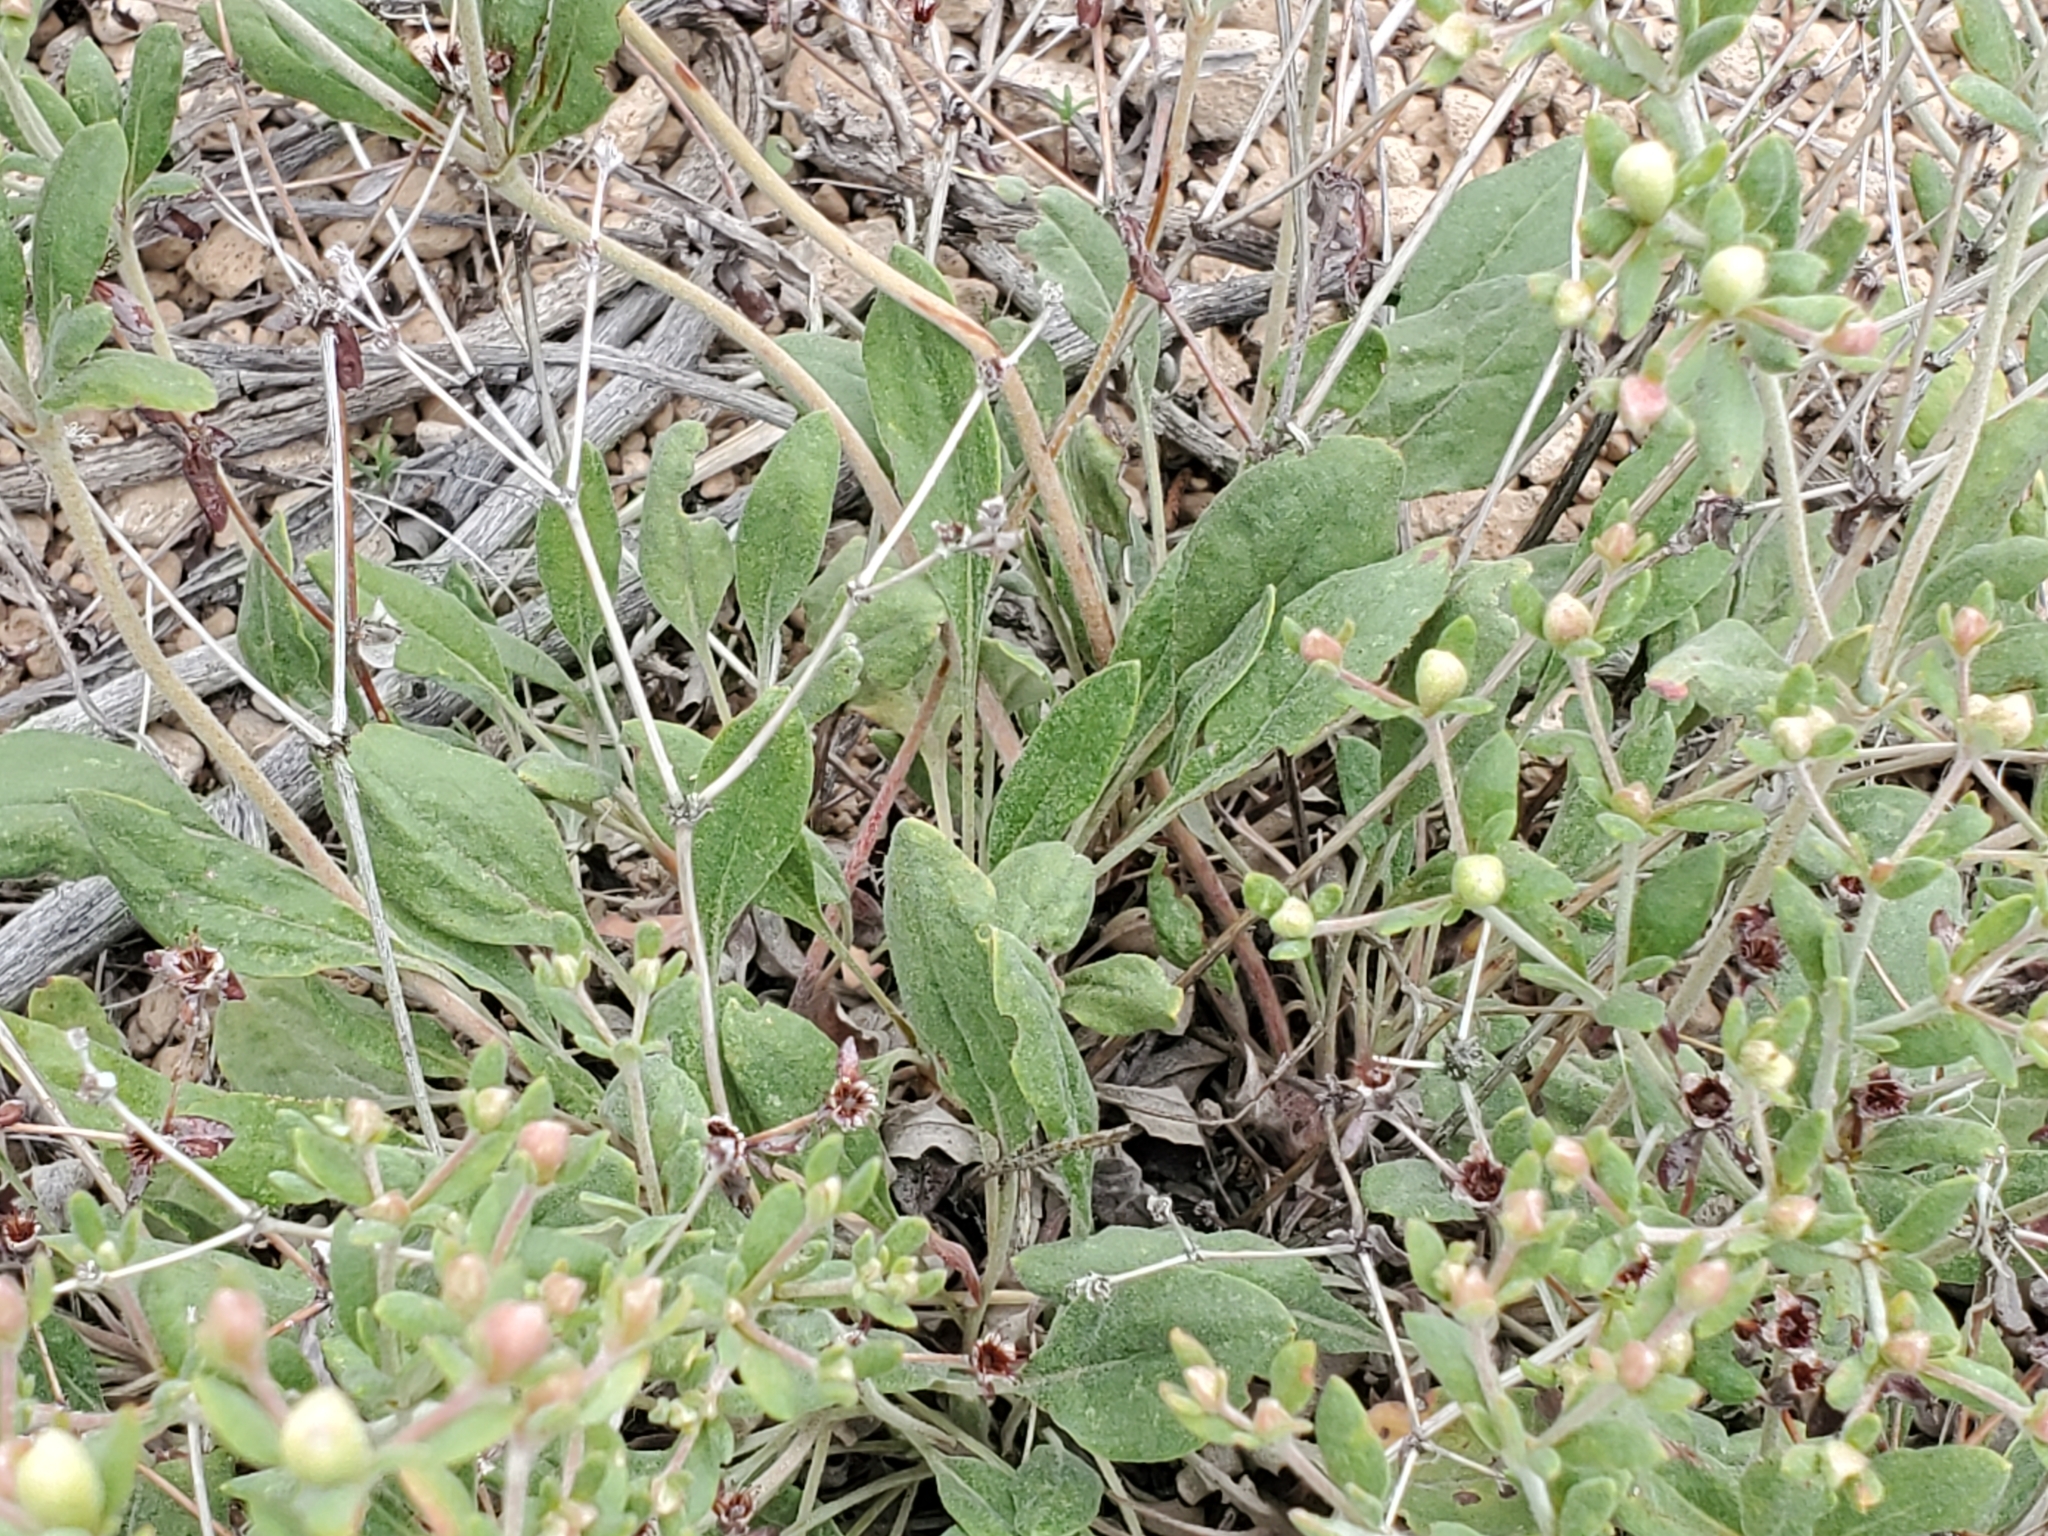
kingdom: Plantae
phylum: Tracheophyta
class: Magnoliopsida
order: Caryophyllales
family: Polygonaceae
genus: Eriogonum
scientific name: Eriogonum jamesii
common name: Antelope-sage
